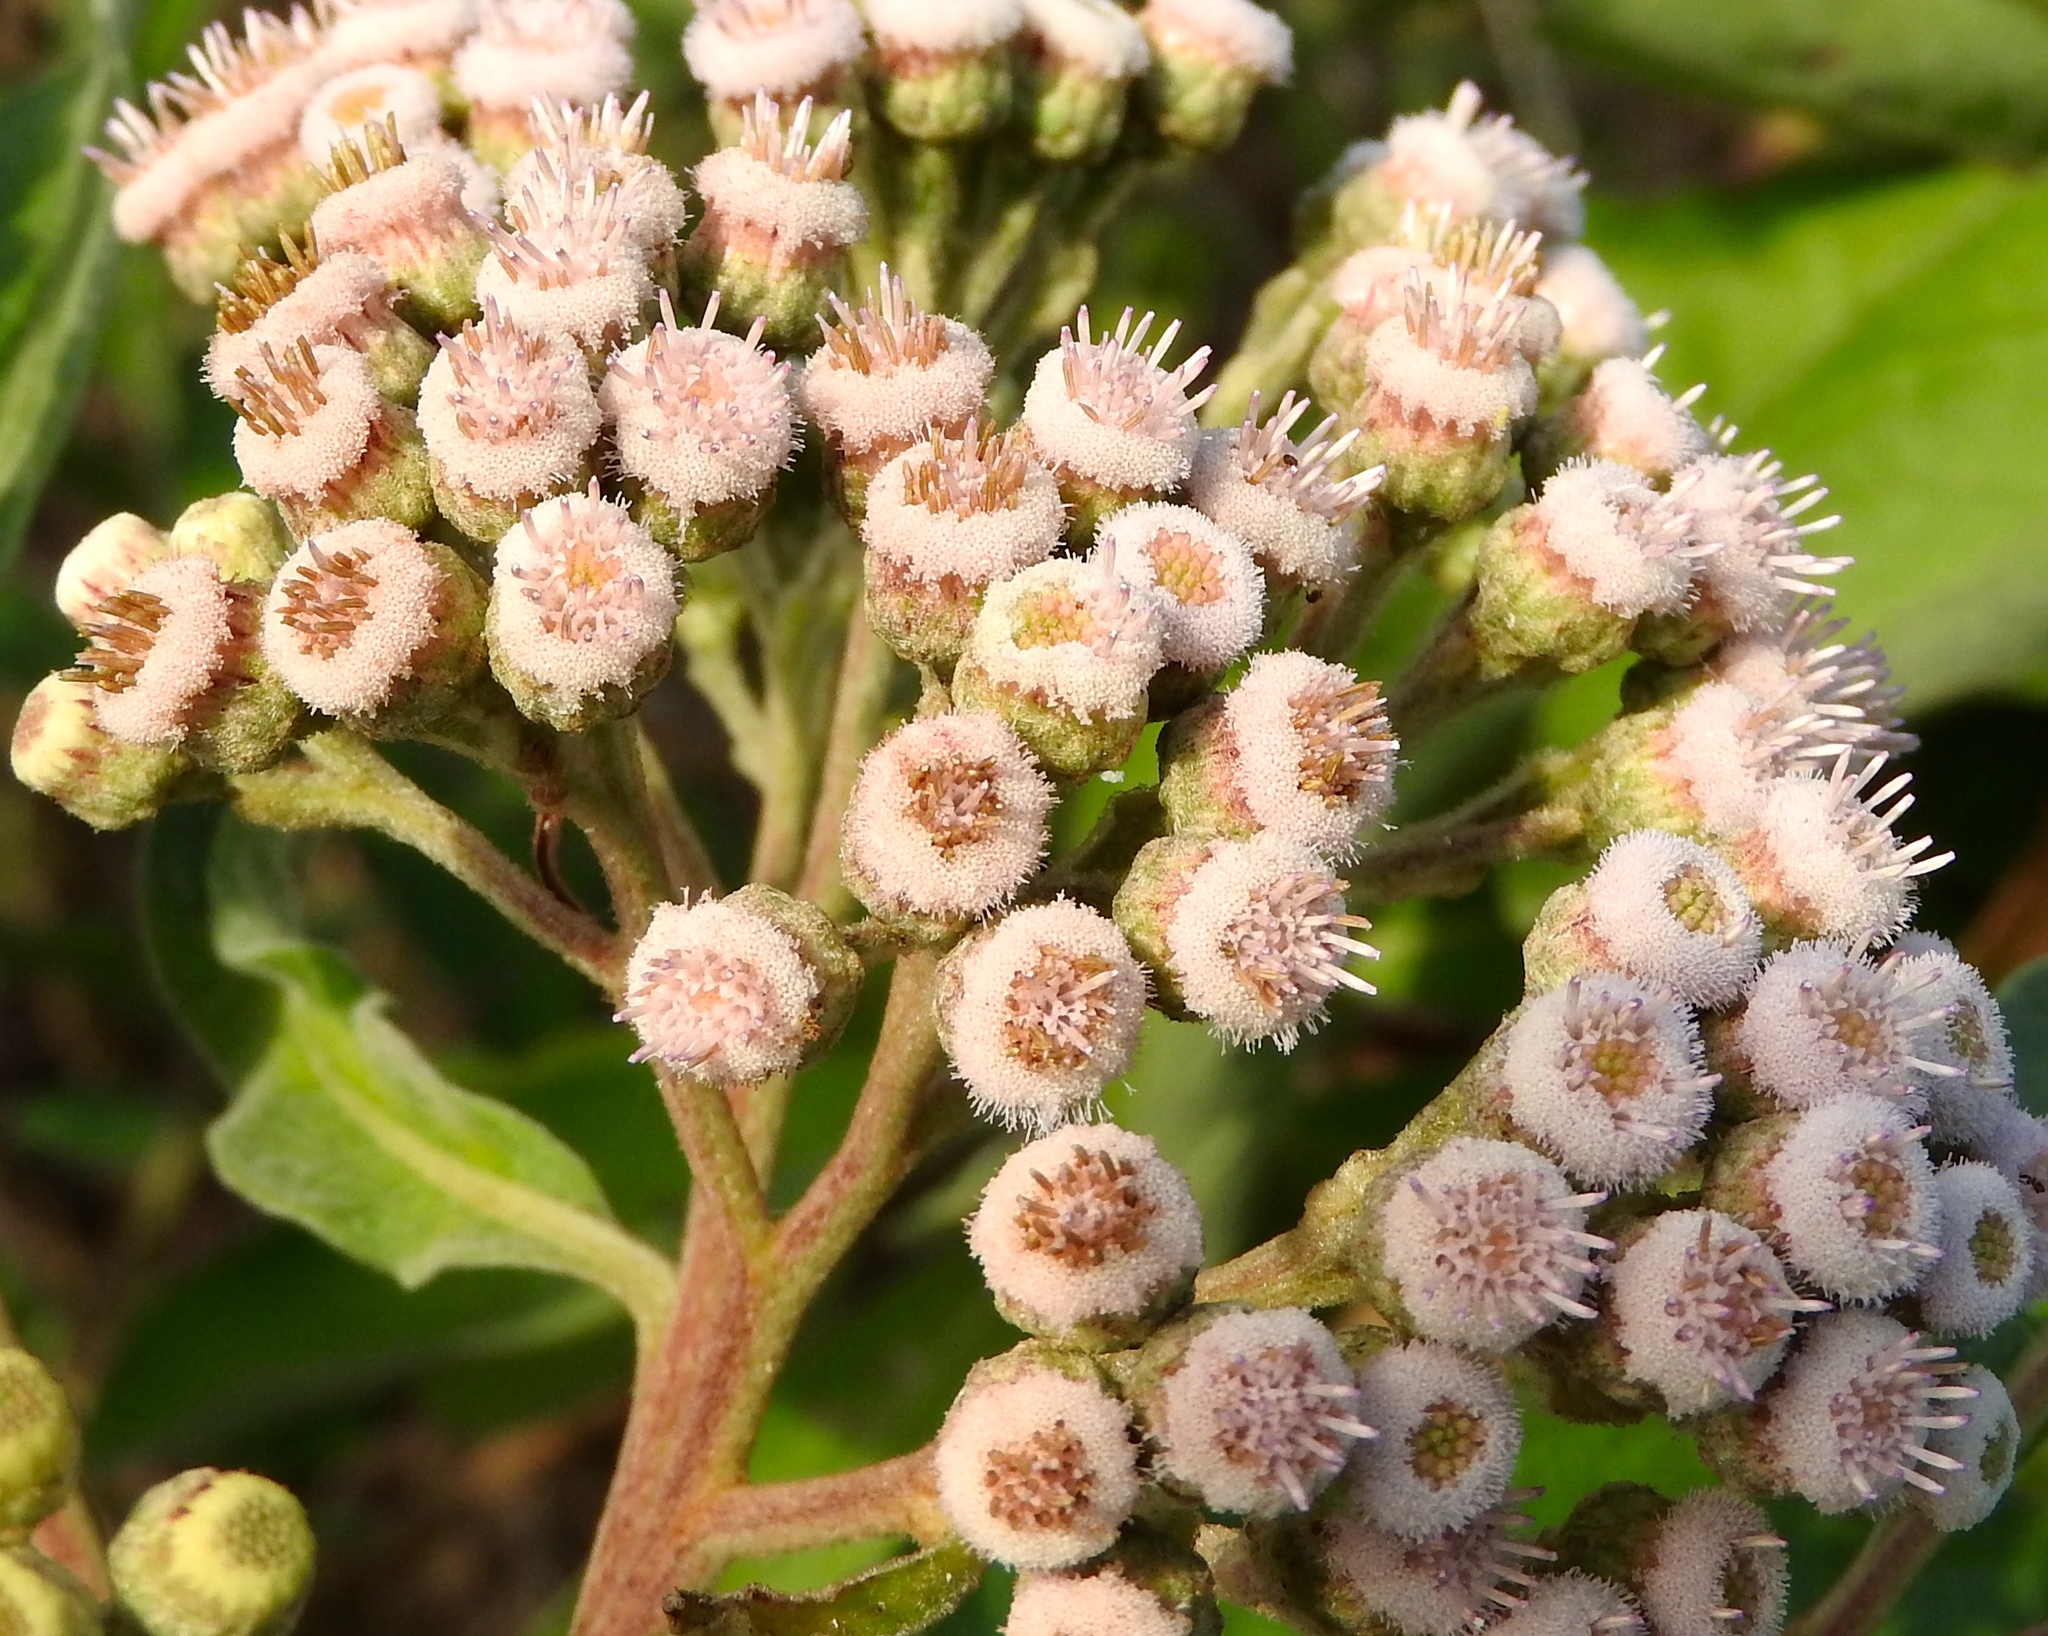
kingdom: Plantae
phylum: Tracheophyta
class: Magnoliopsida
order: Asterales
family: Asteraceae
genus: Pluchea
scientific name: Pluchea carolinensis
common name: Marsh fleabane
